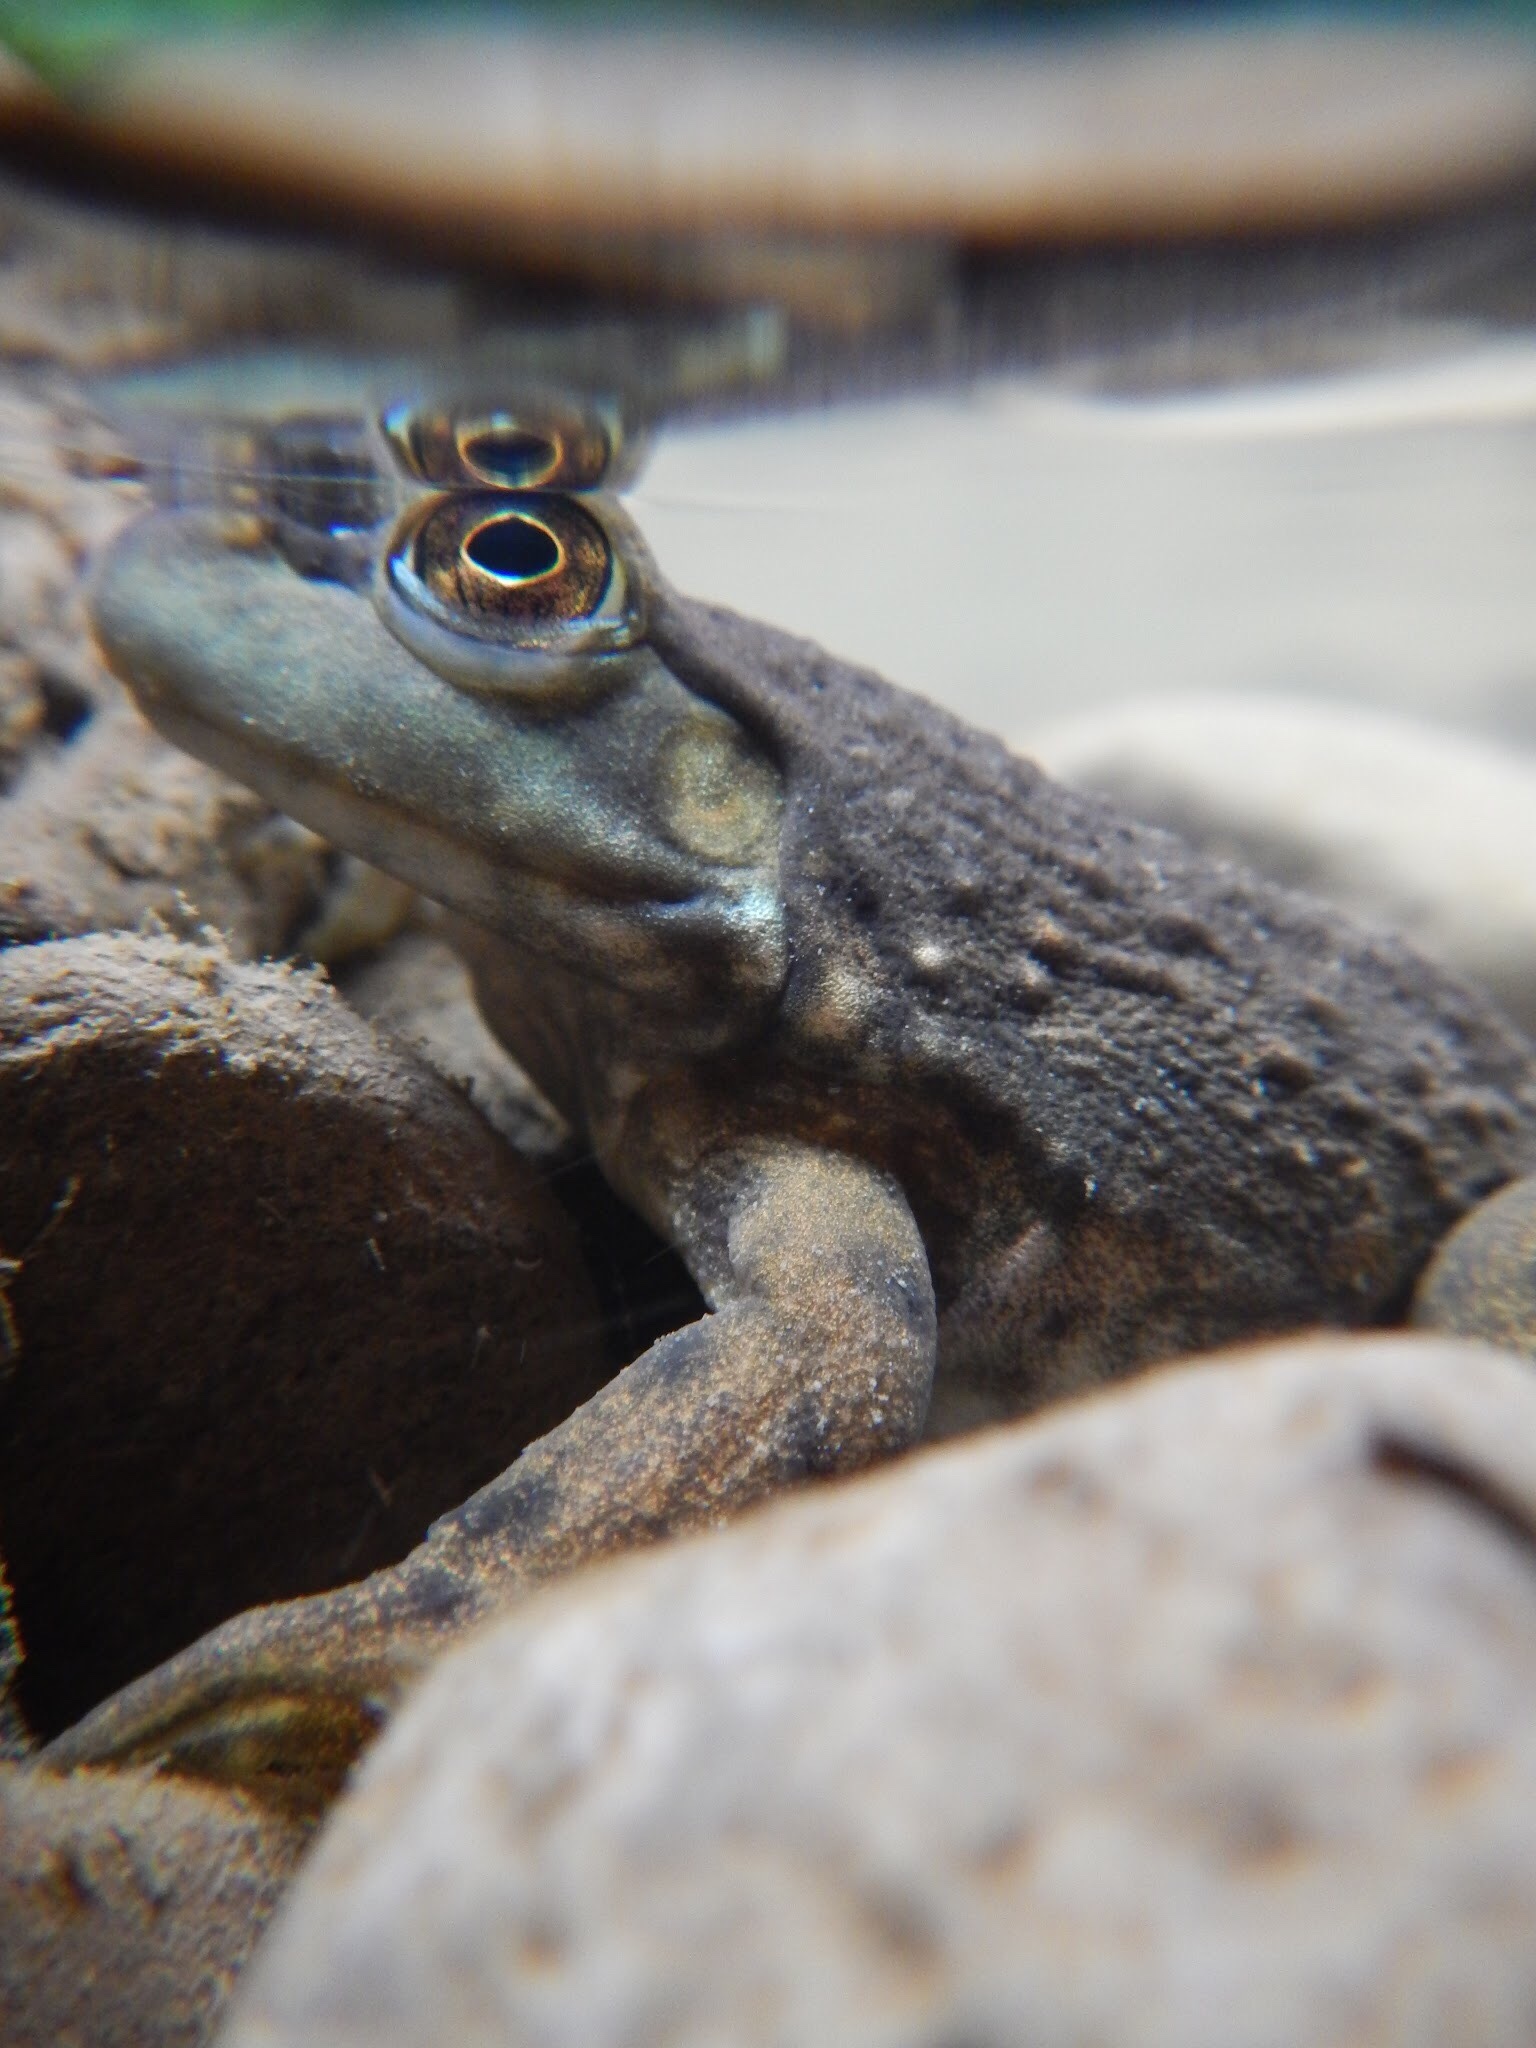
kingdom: Animalia
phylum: Chordata
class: Amphibia
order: Anura
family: Ranidae
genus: Lithobates
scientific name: Lithobates catesbeianus
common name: American bullfrog
